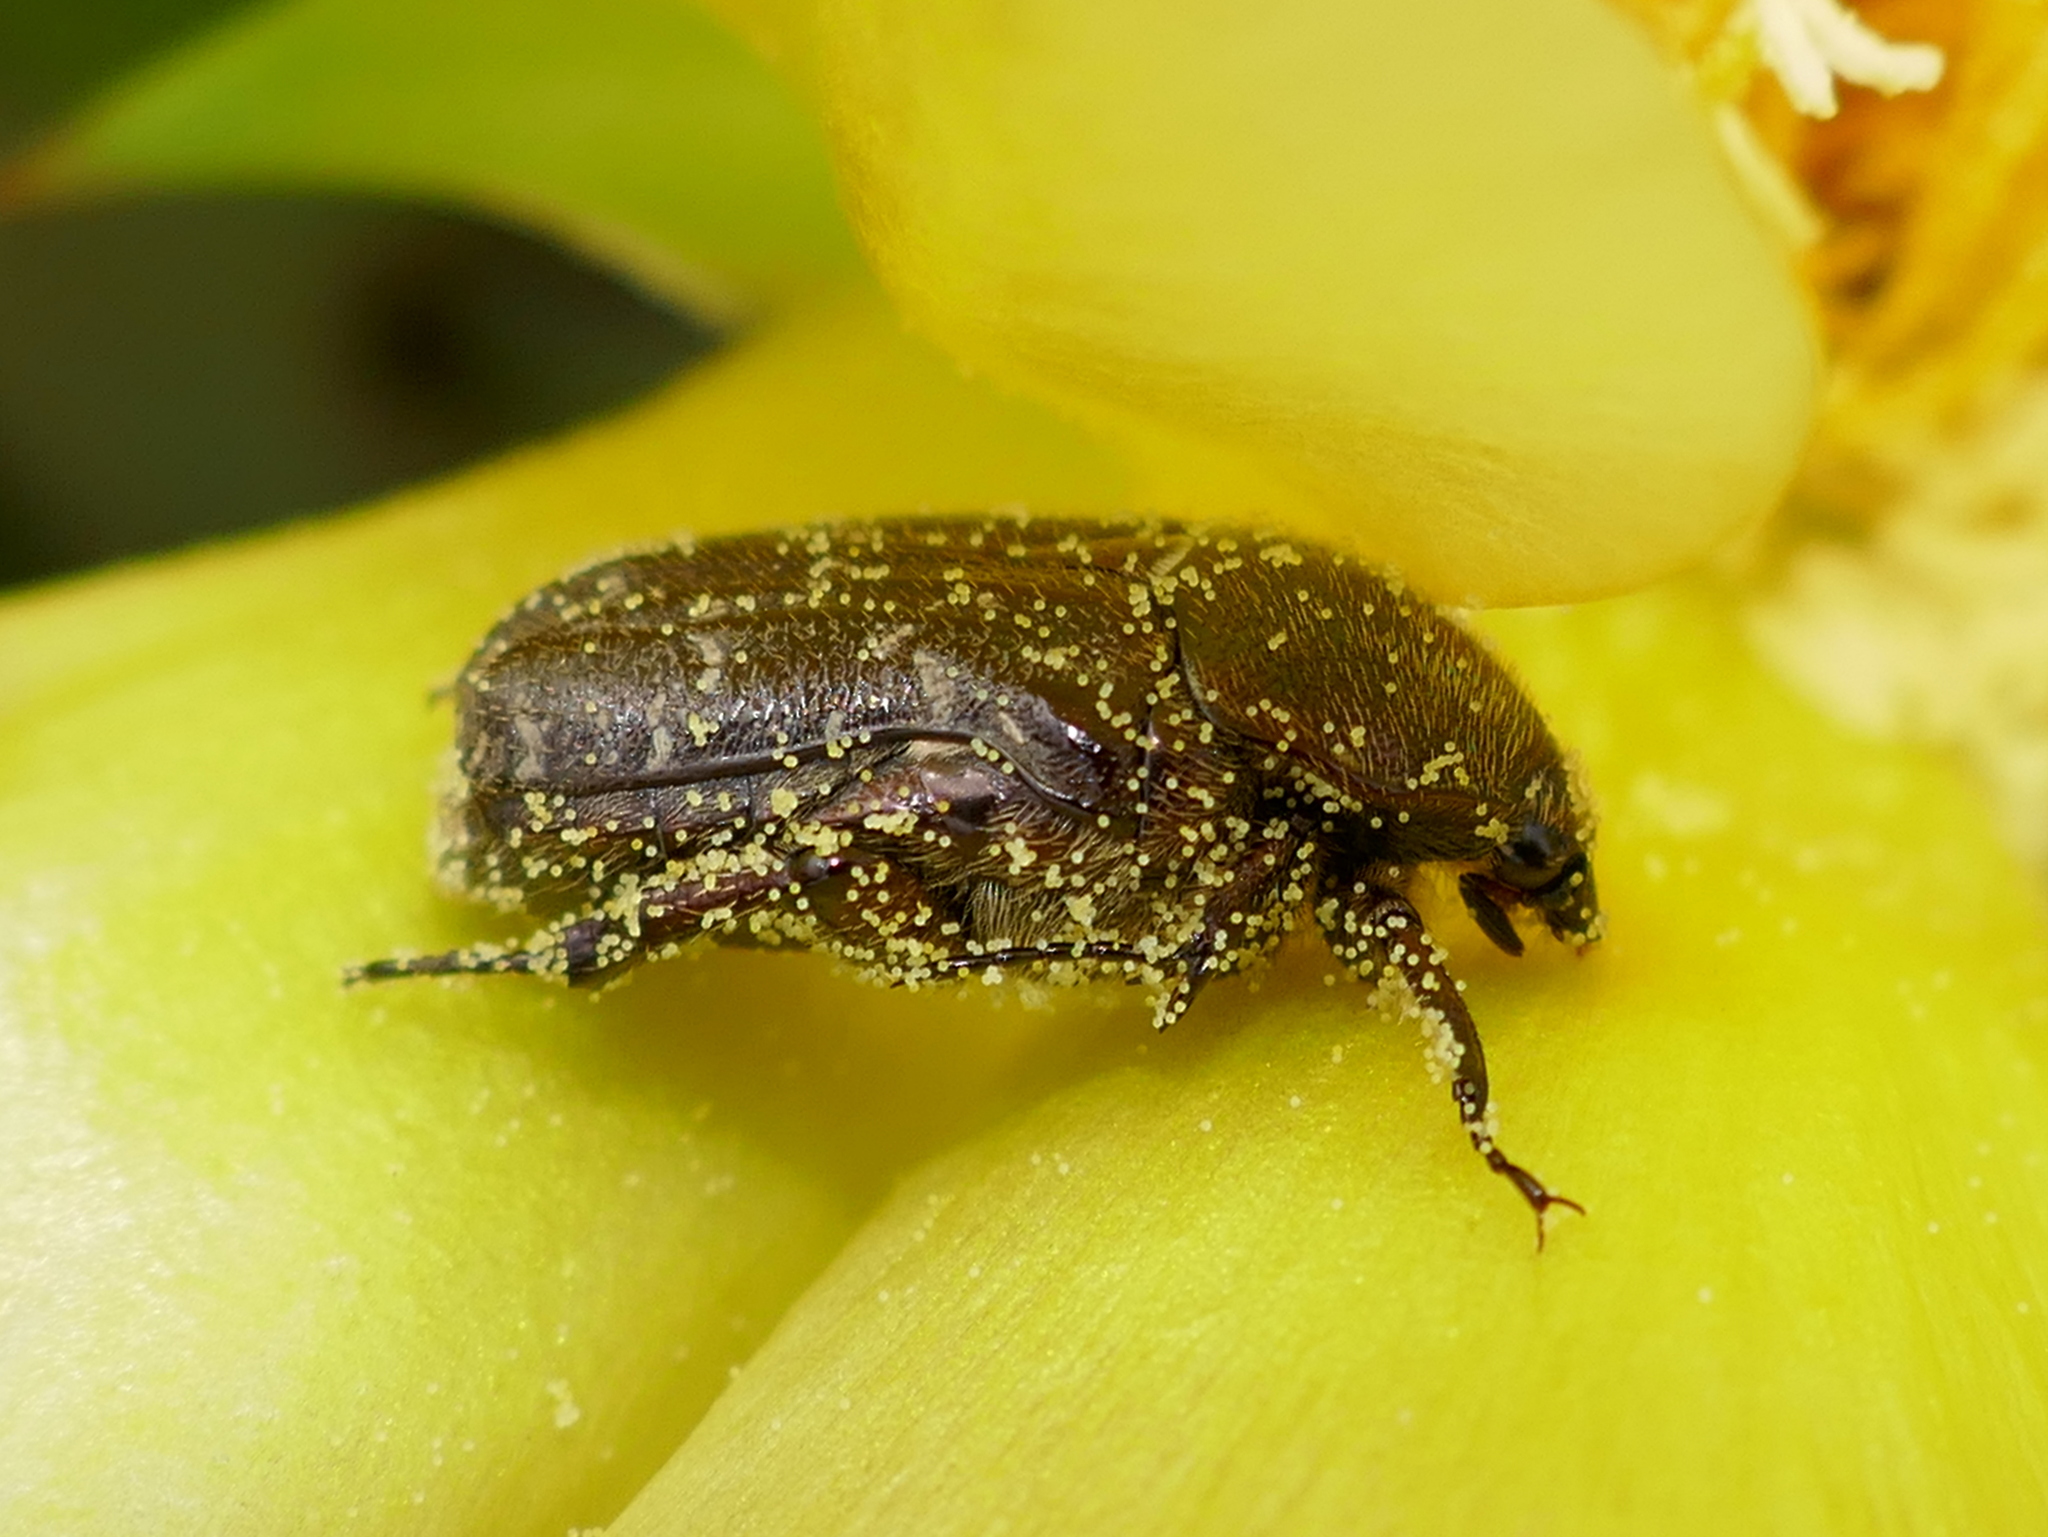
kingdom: Animalia
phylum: Arthropoda
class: Insecta
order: Coleoptera
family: Scarabaeidae
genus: Euphoria
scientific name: Euphoria sepulcralis
